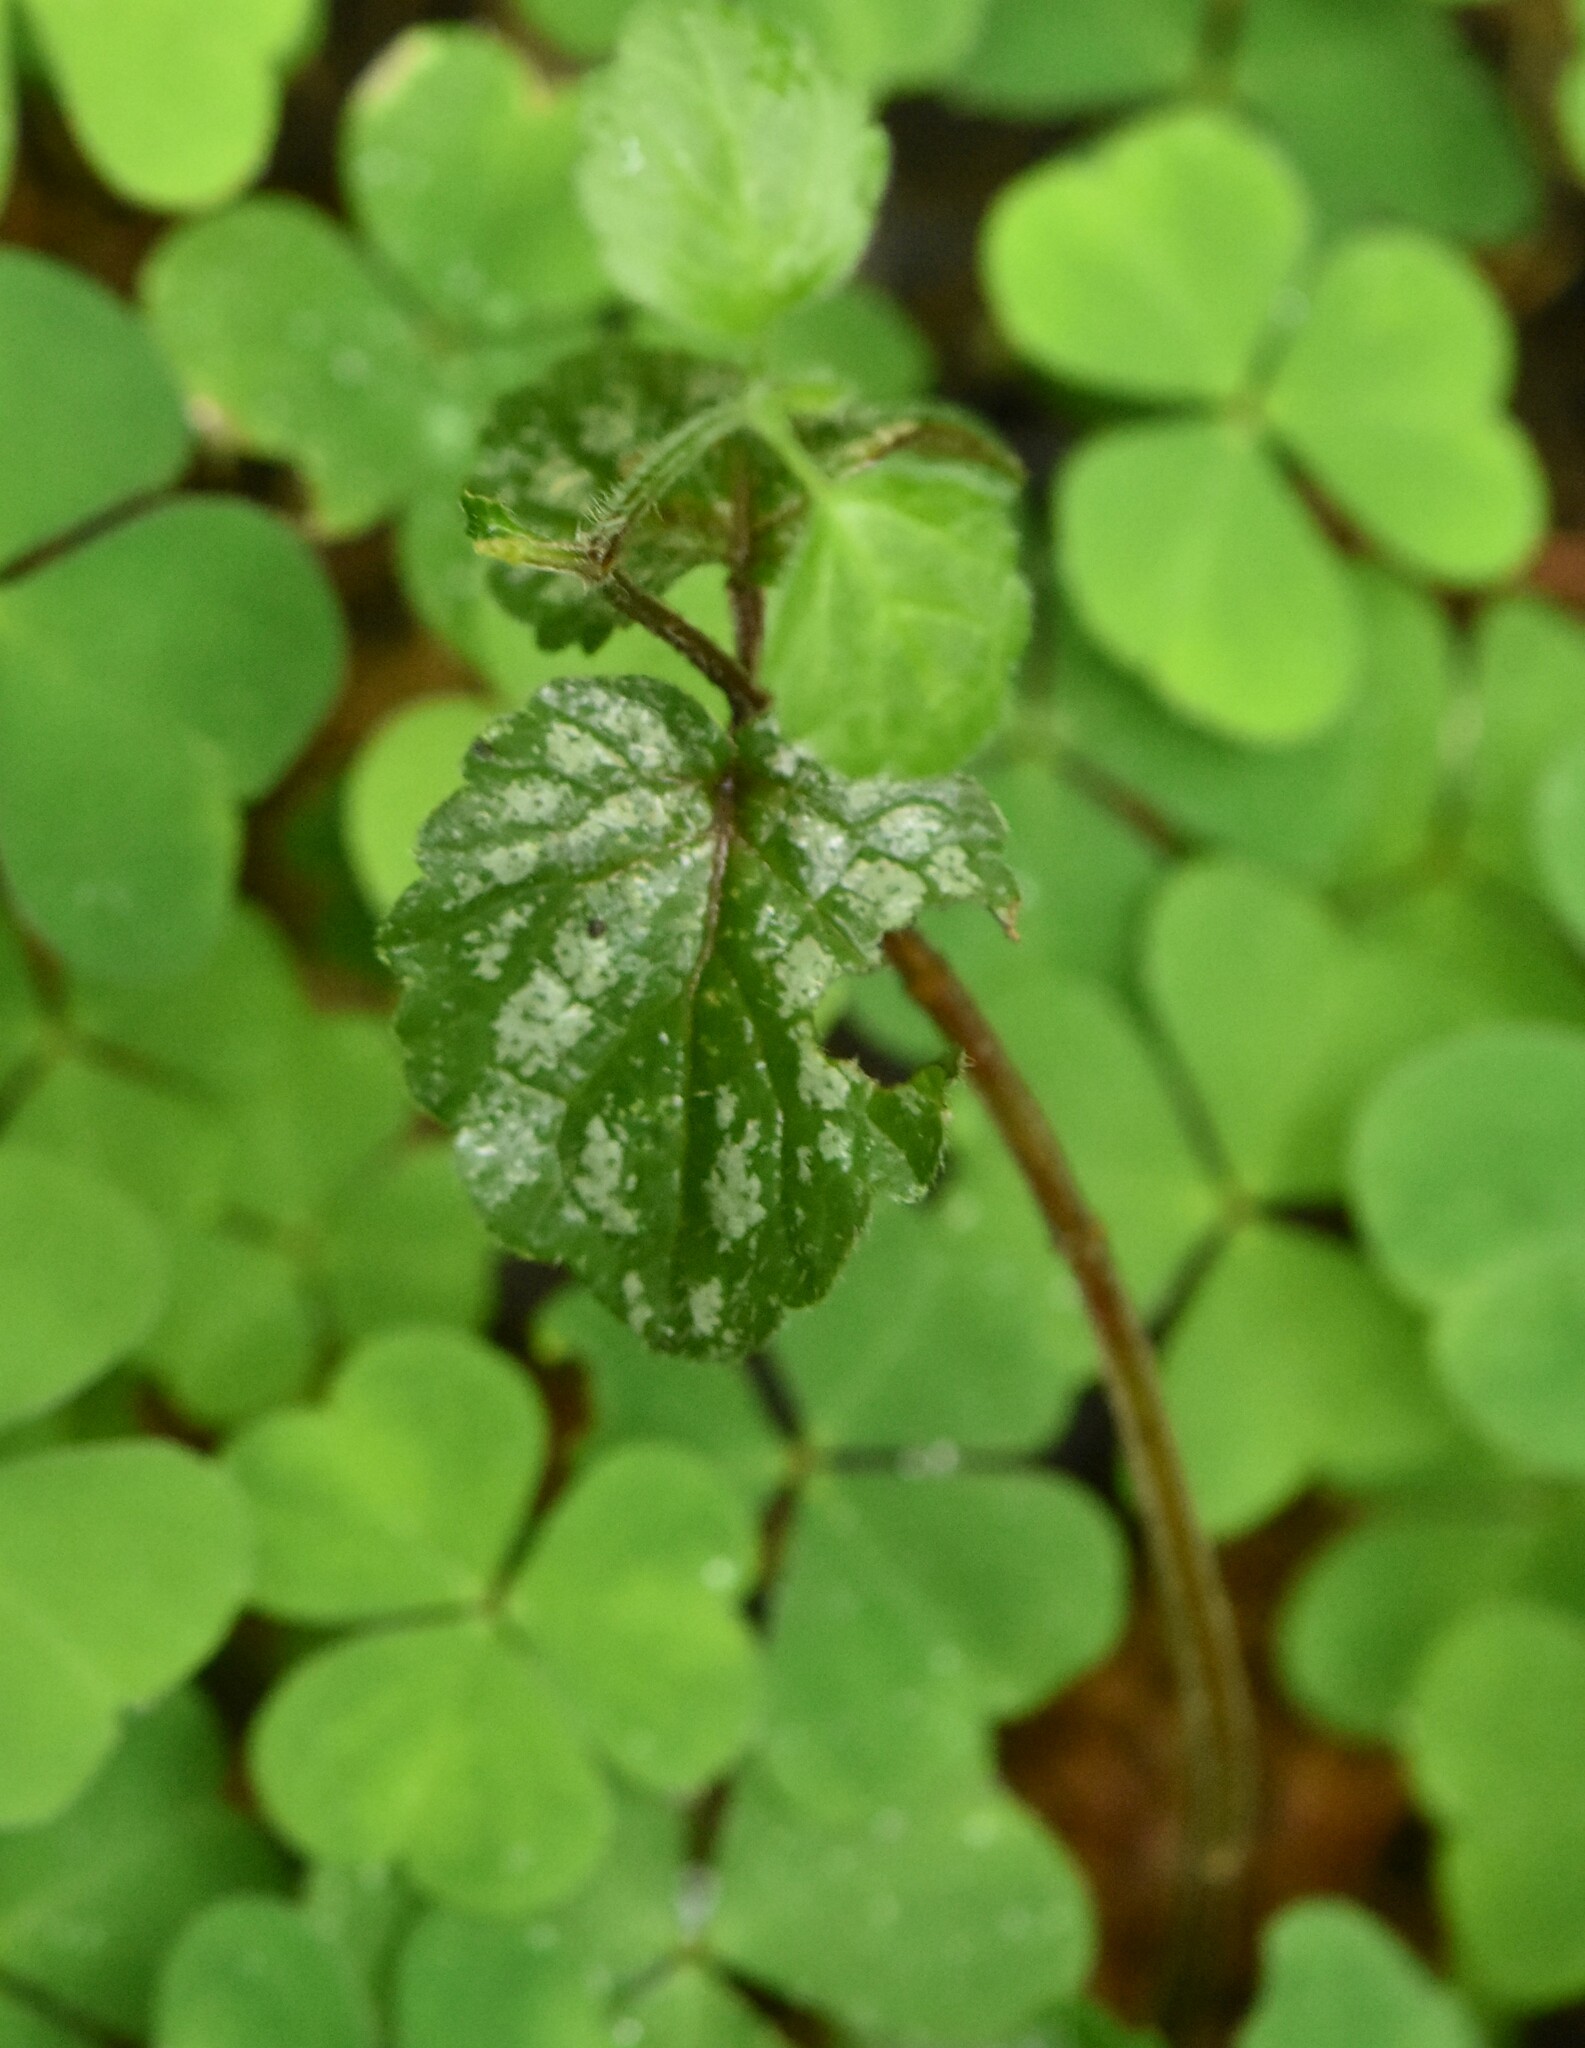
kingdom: Plantae
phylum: Tracheophyta
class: Magnoliopsida
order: Lamiales
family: Lamiaceae
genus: Lamium
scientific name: Lamium galeobdolon
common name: Yellow archangel
